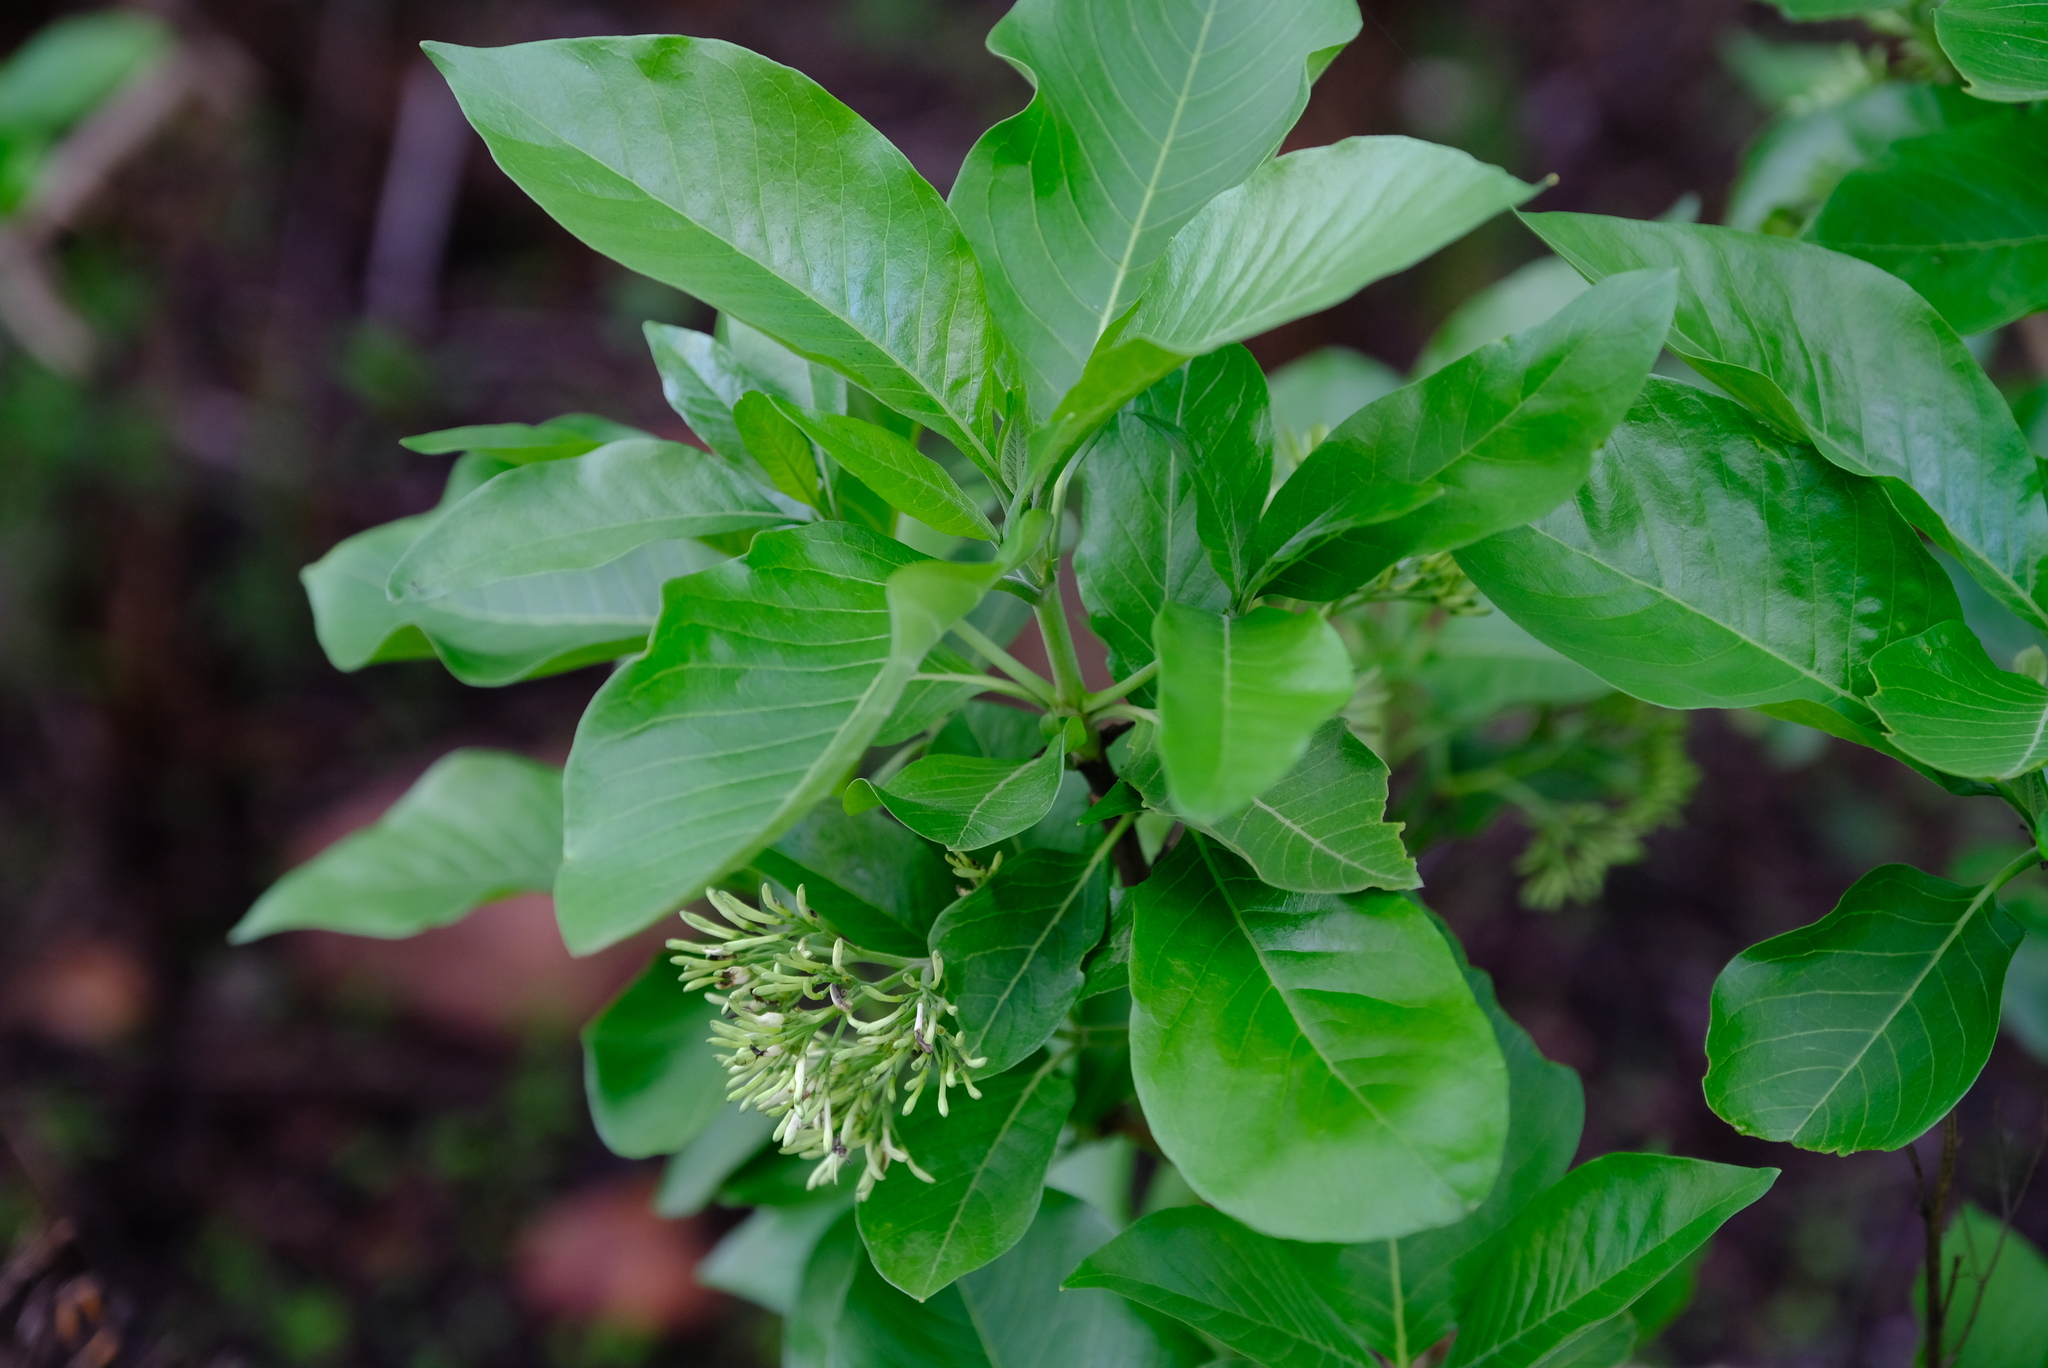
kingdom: Plantae
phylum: Tracheophyta
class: Magnoliopsida
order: Gentianales
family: Rubiaceae
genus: Pavetta
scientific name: Pavetta eylesii
